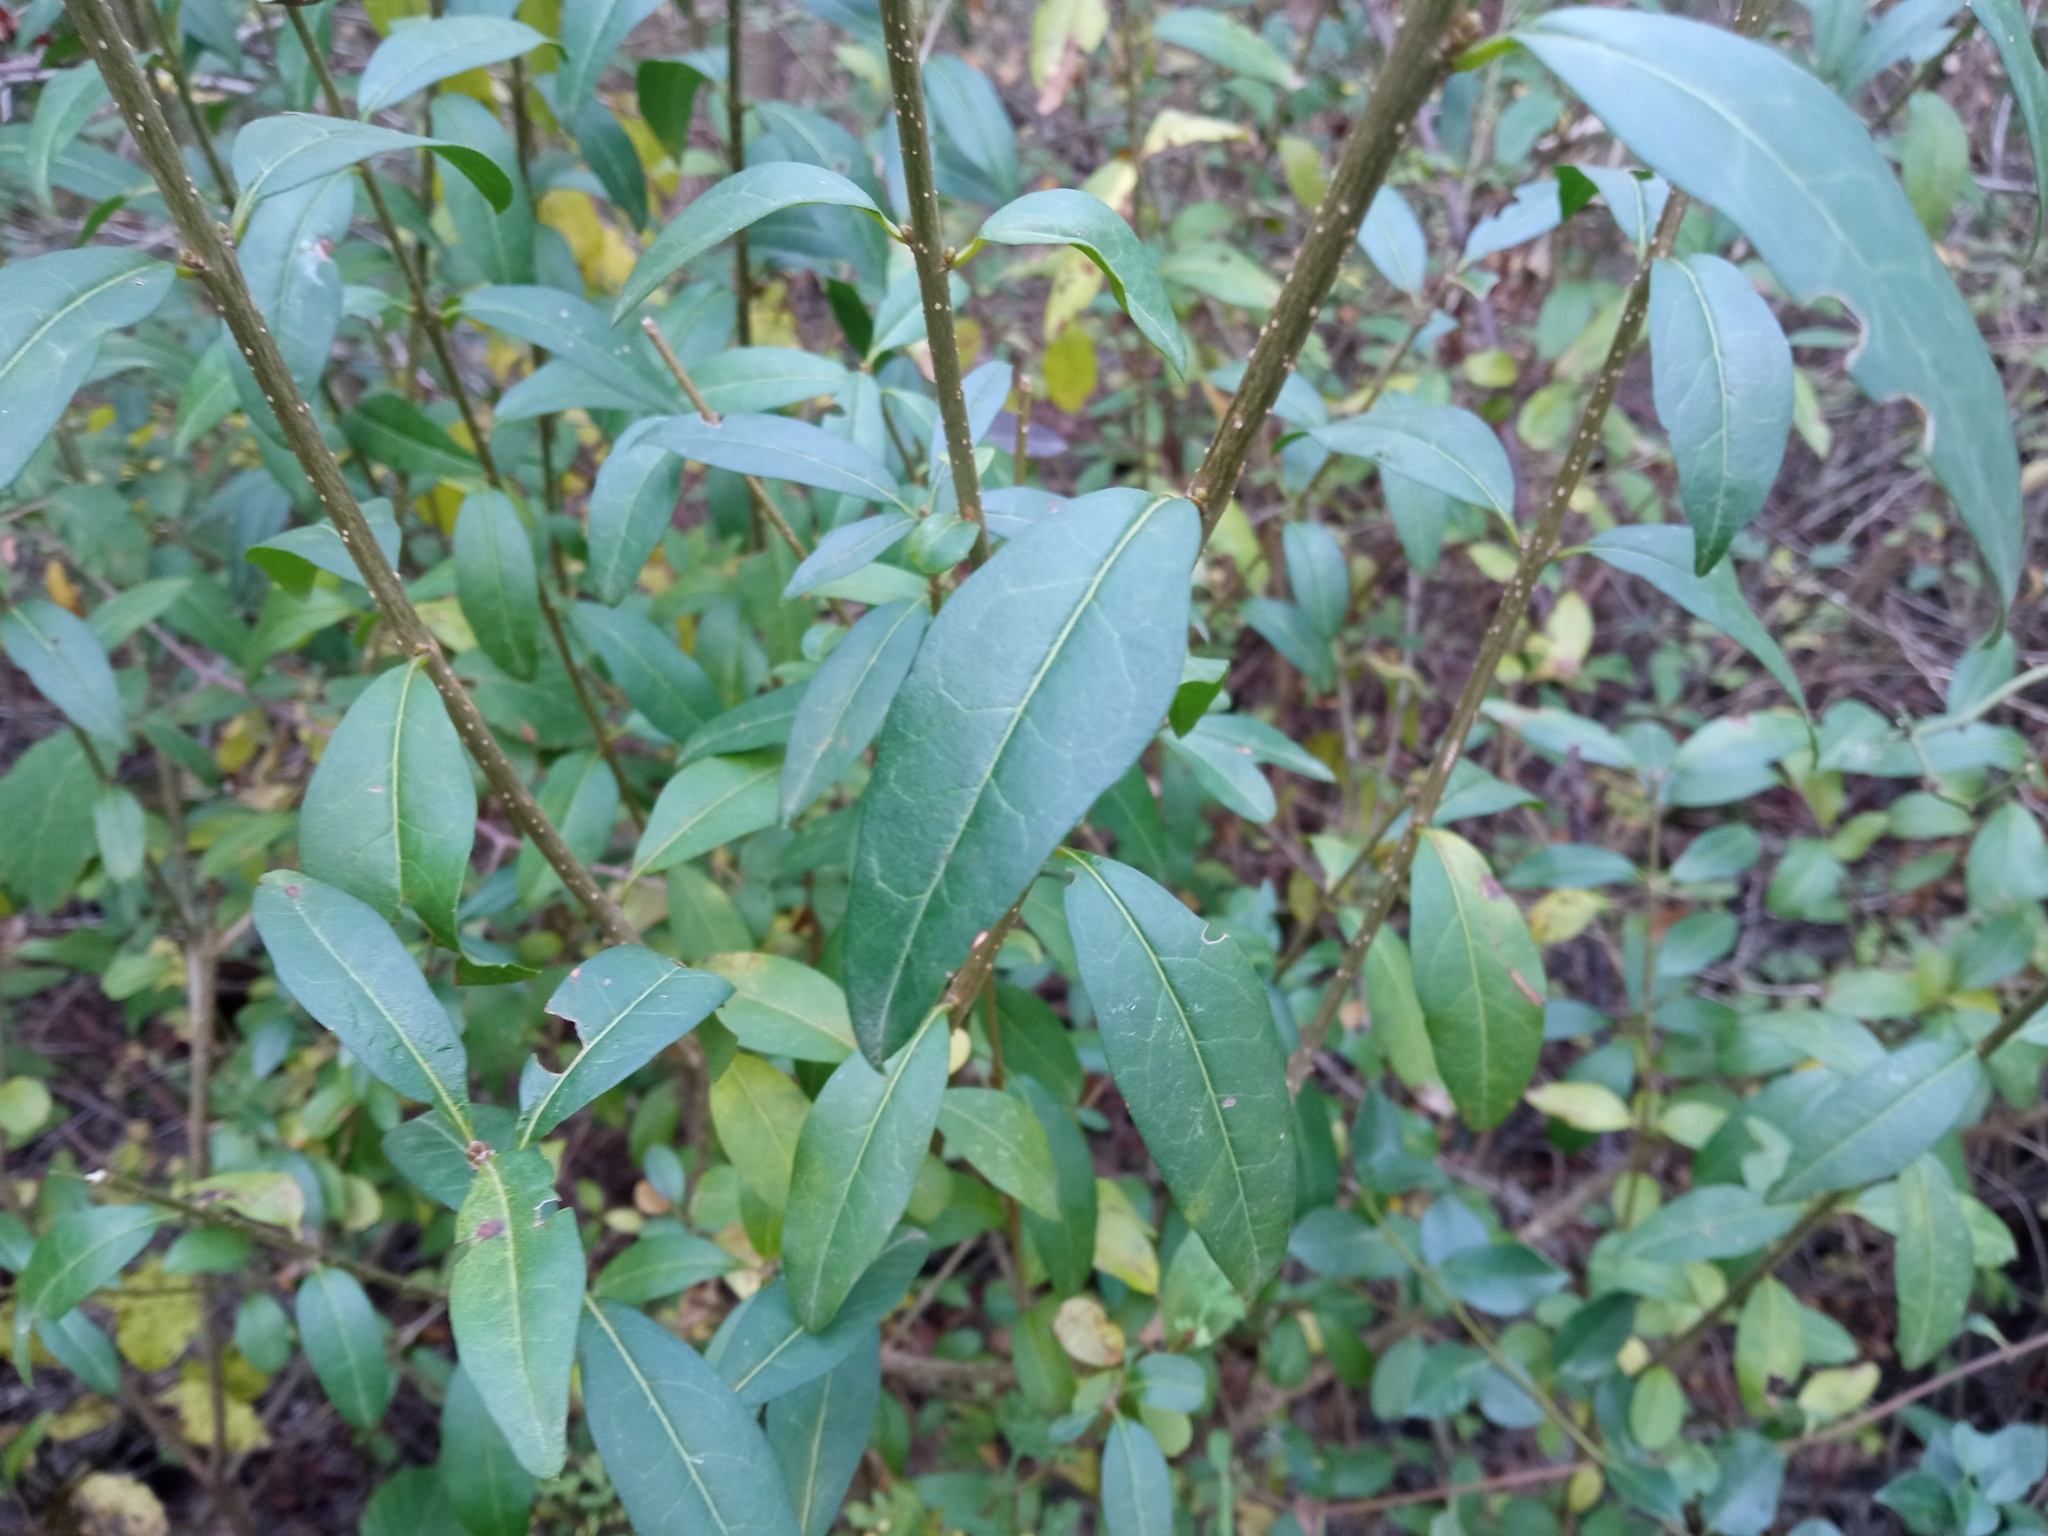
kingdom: Plantae
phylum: Tracheophyta
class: Magnoliopsida
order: Lamiales
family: Oleaceae
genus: Ligustrum
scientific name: Ligustrum vulgare
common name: Wild privet
